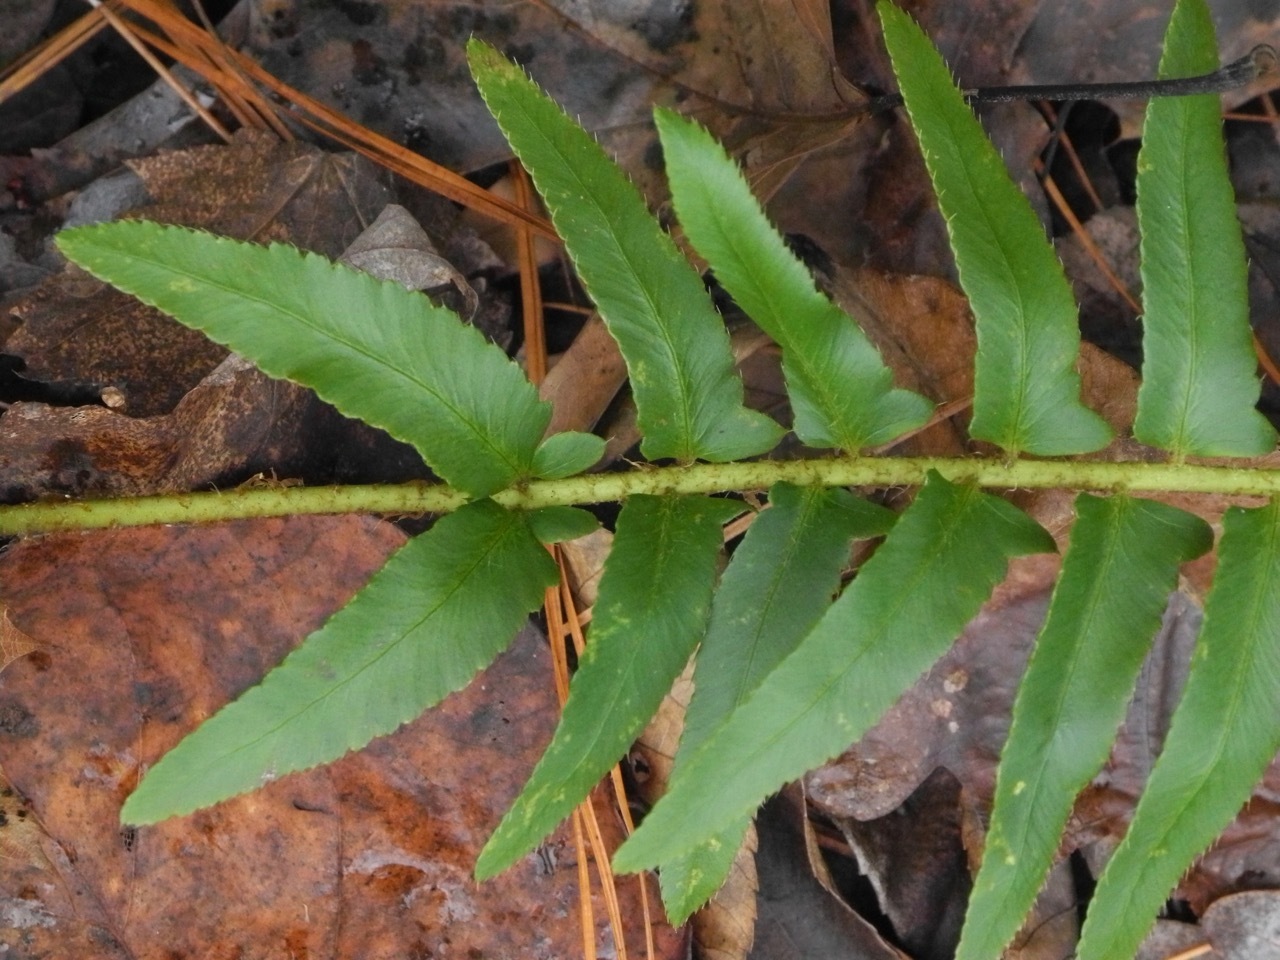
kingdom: Plantae
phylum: Tracheophyta
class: Polypodiopsida
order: Polypodiales
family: Dryopteridaceae
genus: Polystichum
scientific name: Polystichum acrostichoides
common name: Christmas fern
